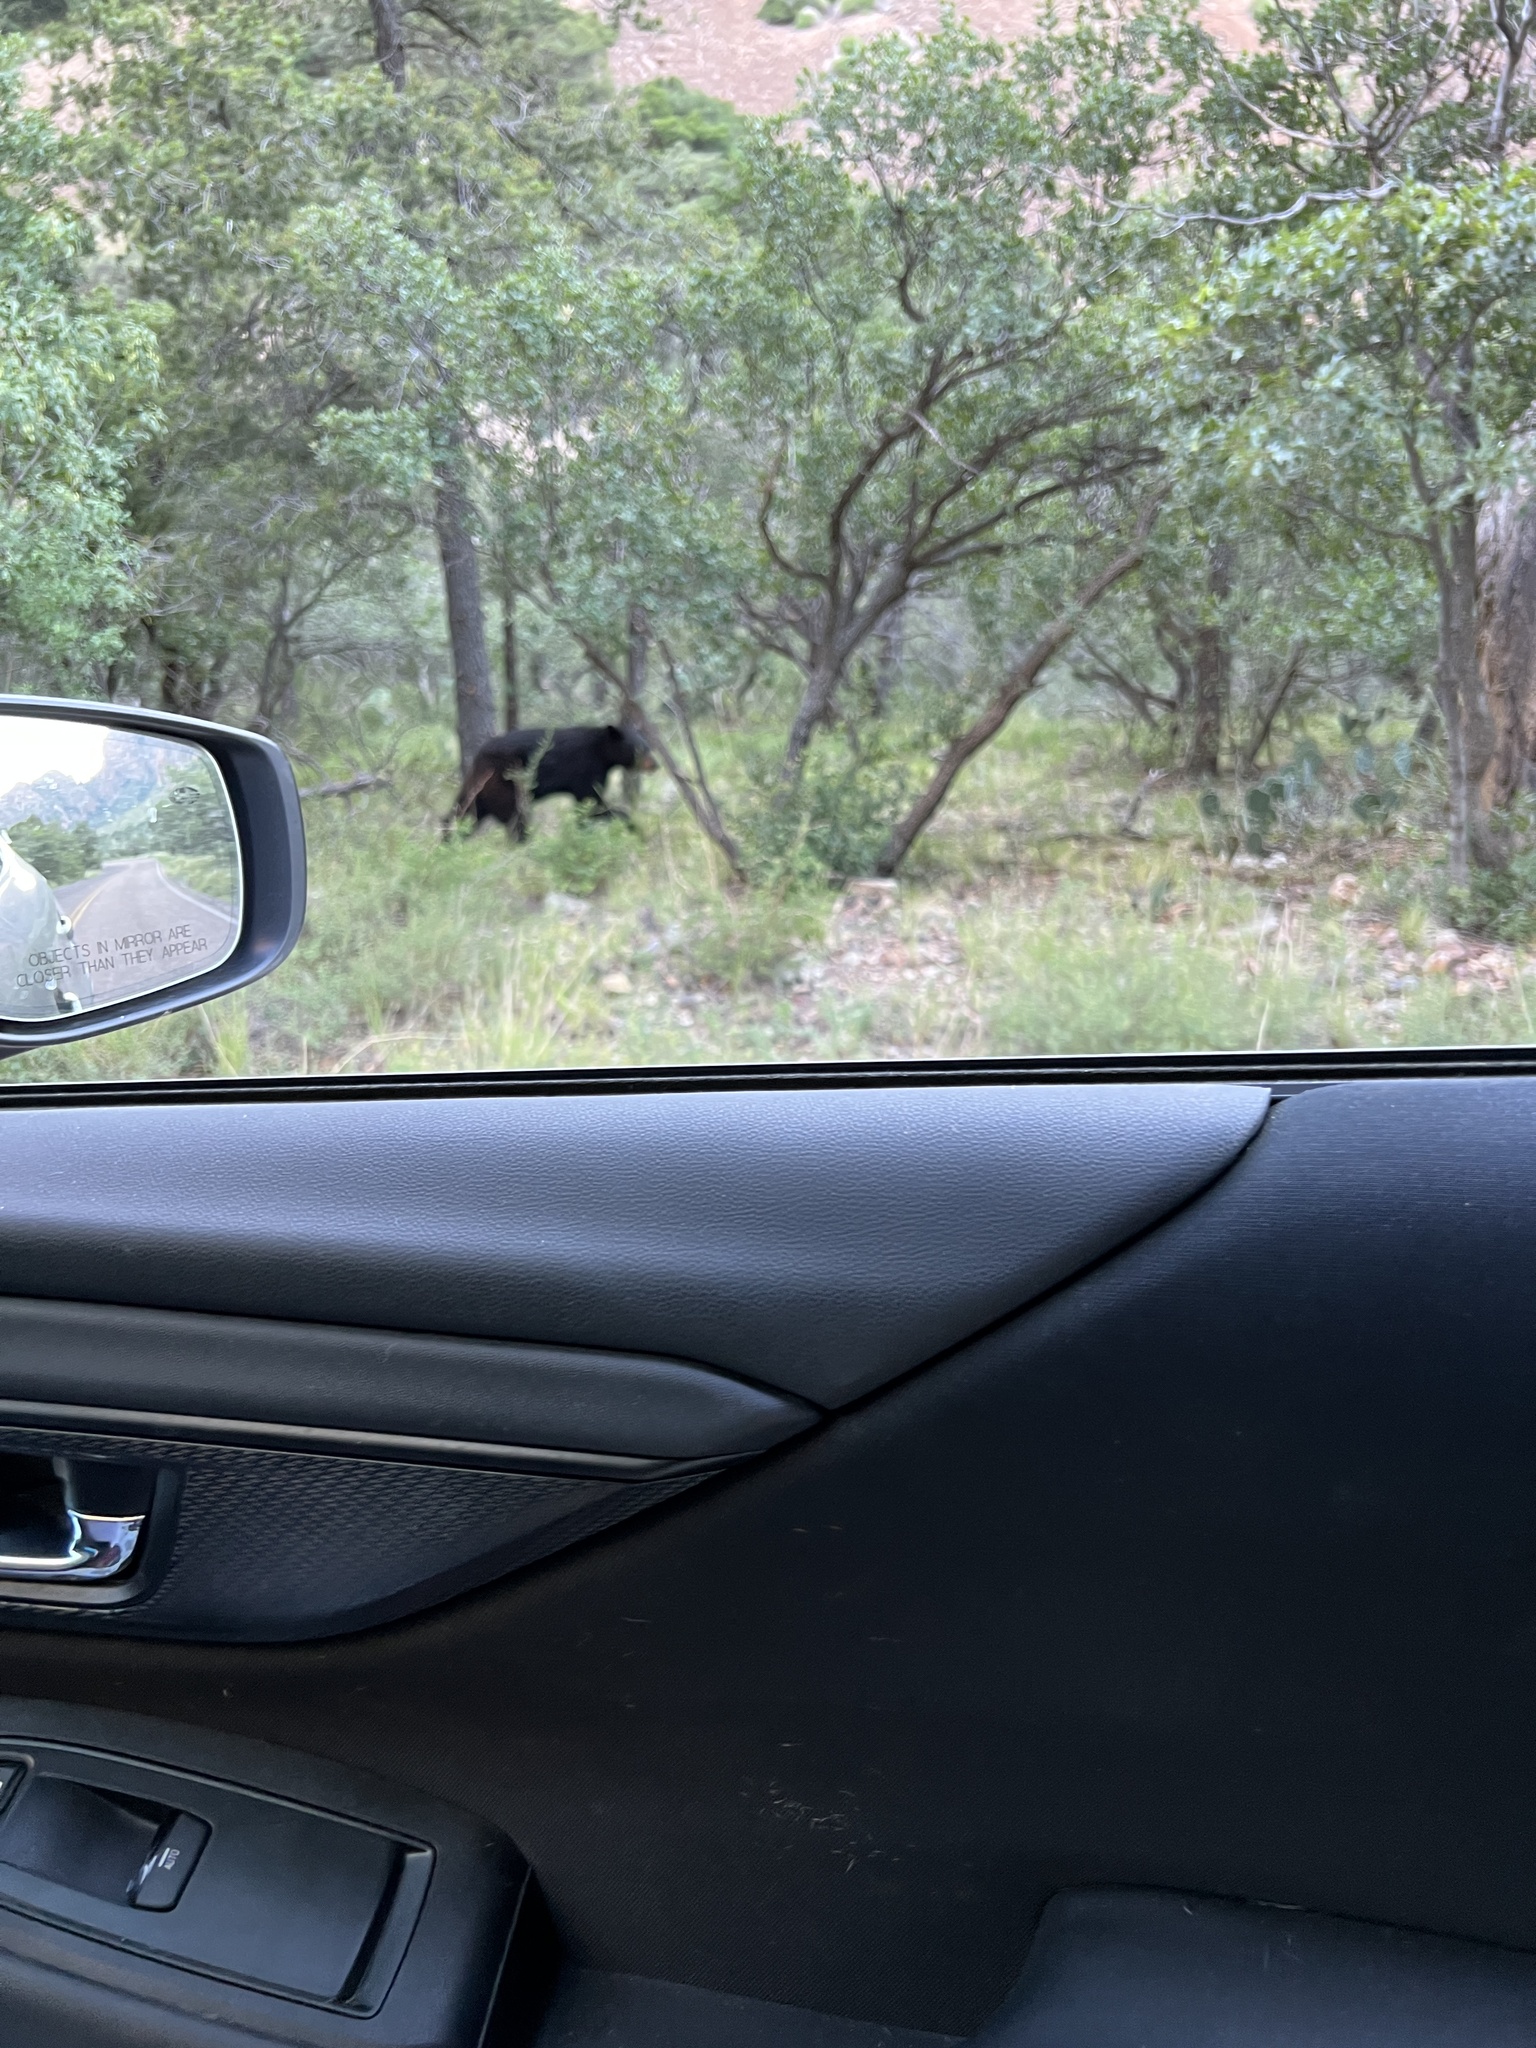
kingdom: Animalia
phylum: Chordata
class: Mammalia
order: Carnivora
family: Ursidae
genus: Ursus
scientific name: Ursus americanus
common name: American black bear
